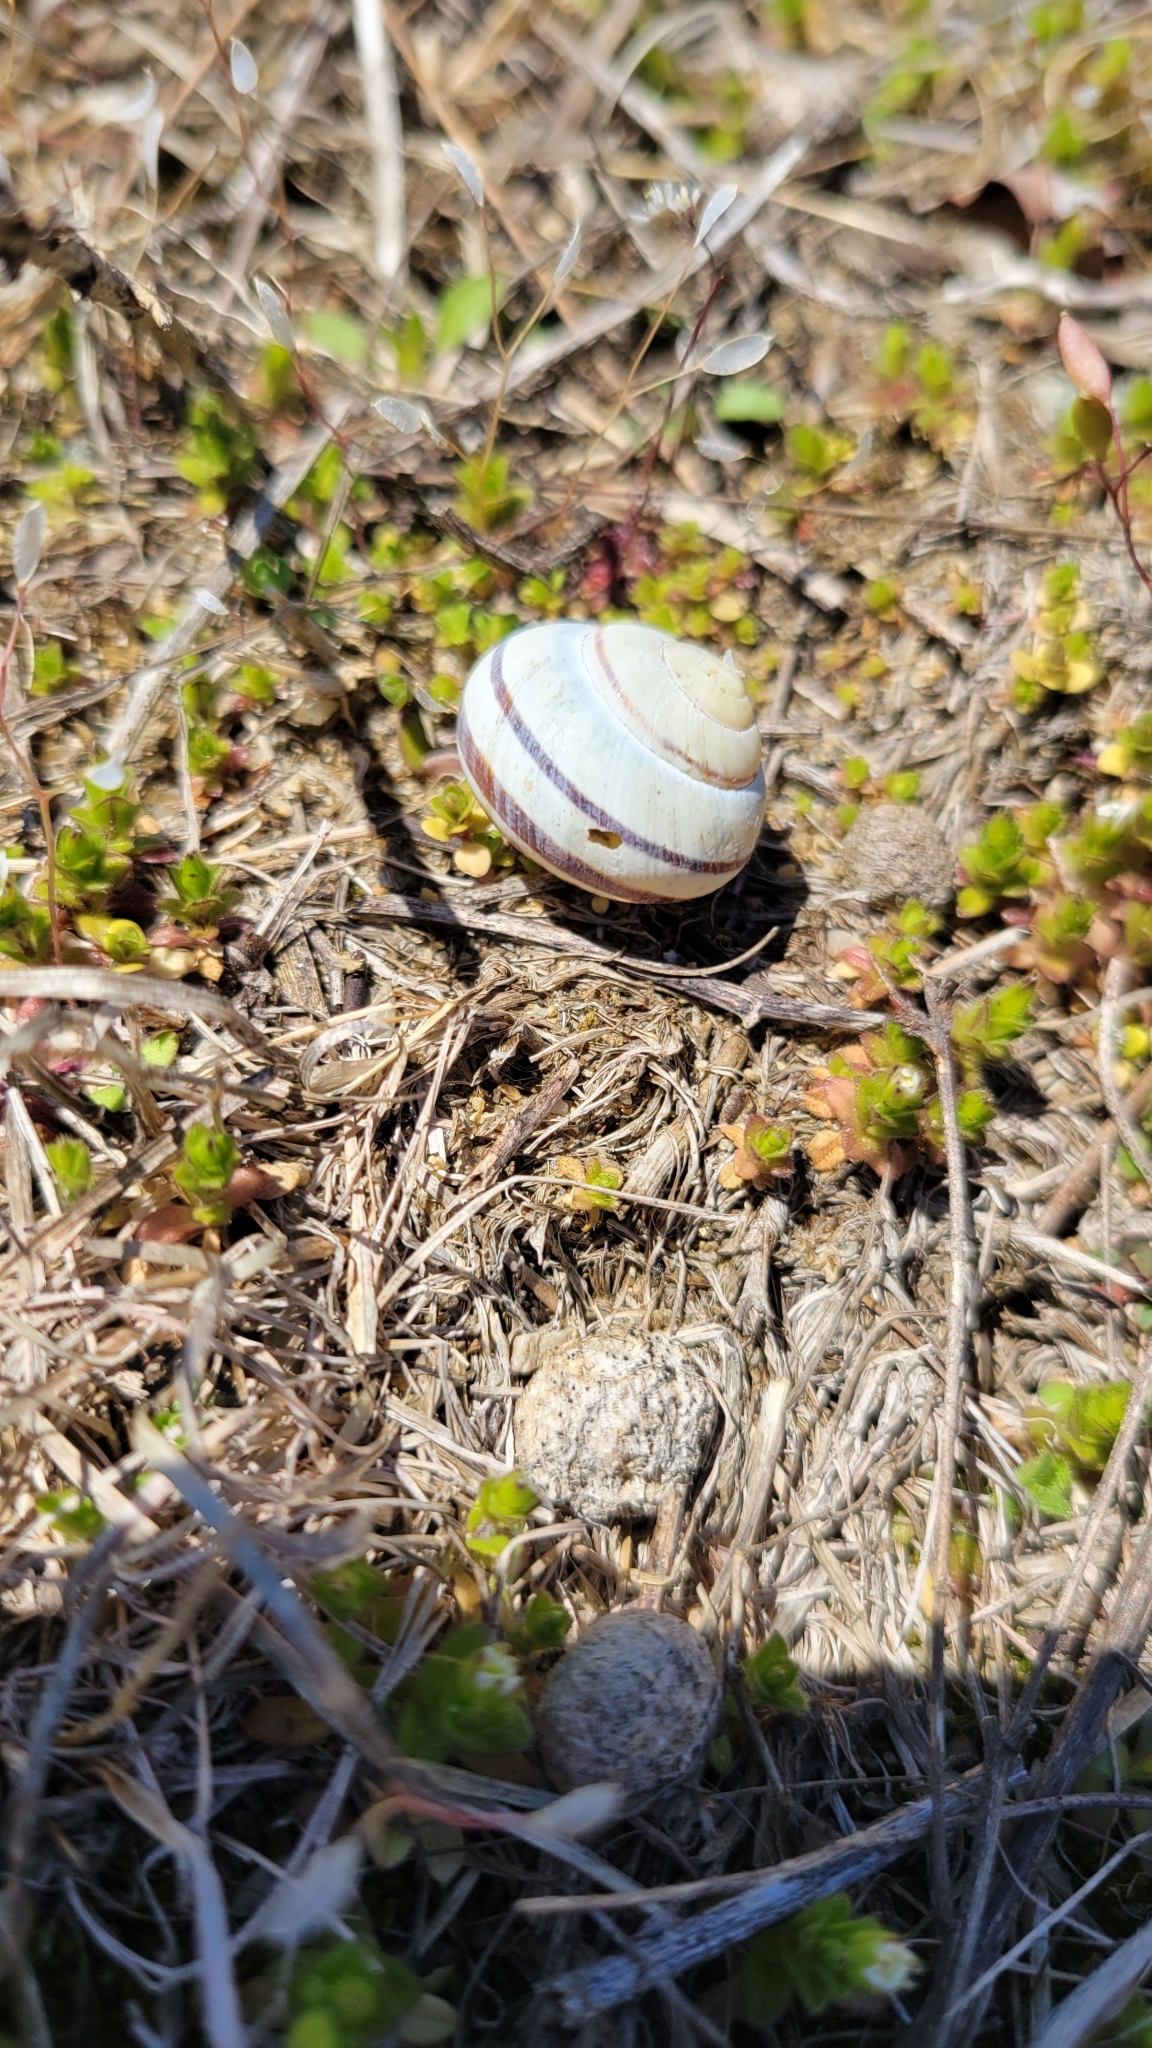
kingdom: Animalia
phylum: Mollusca
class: Gastropoda
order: Stylommatophora
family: Helicidae
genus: Cepaea
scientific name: Cepaea nemoralis
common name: Grovesnail
